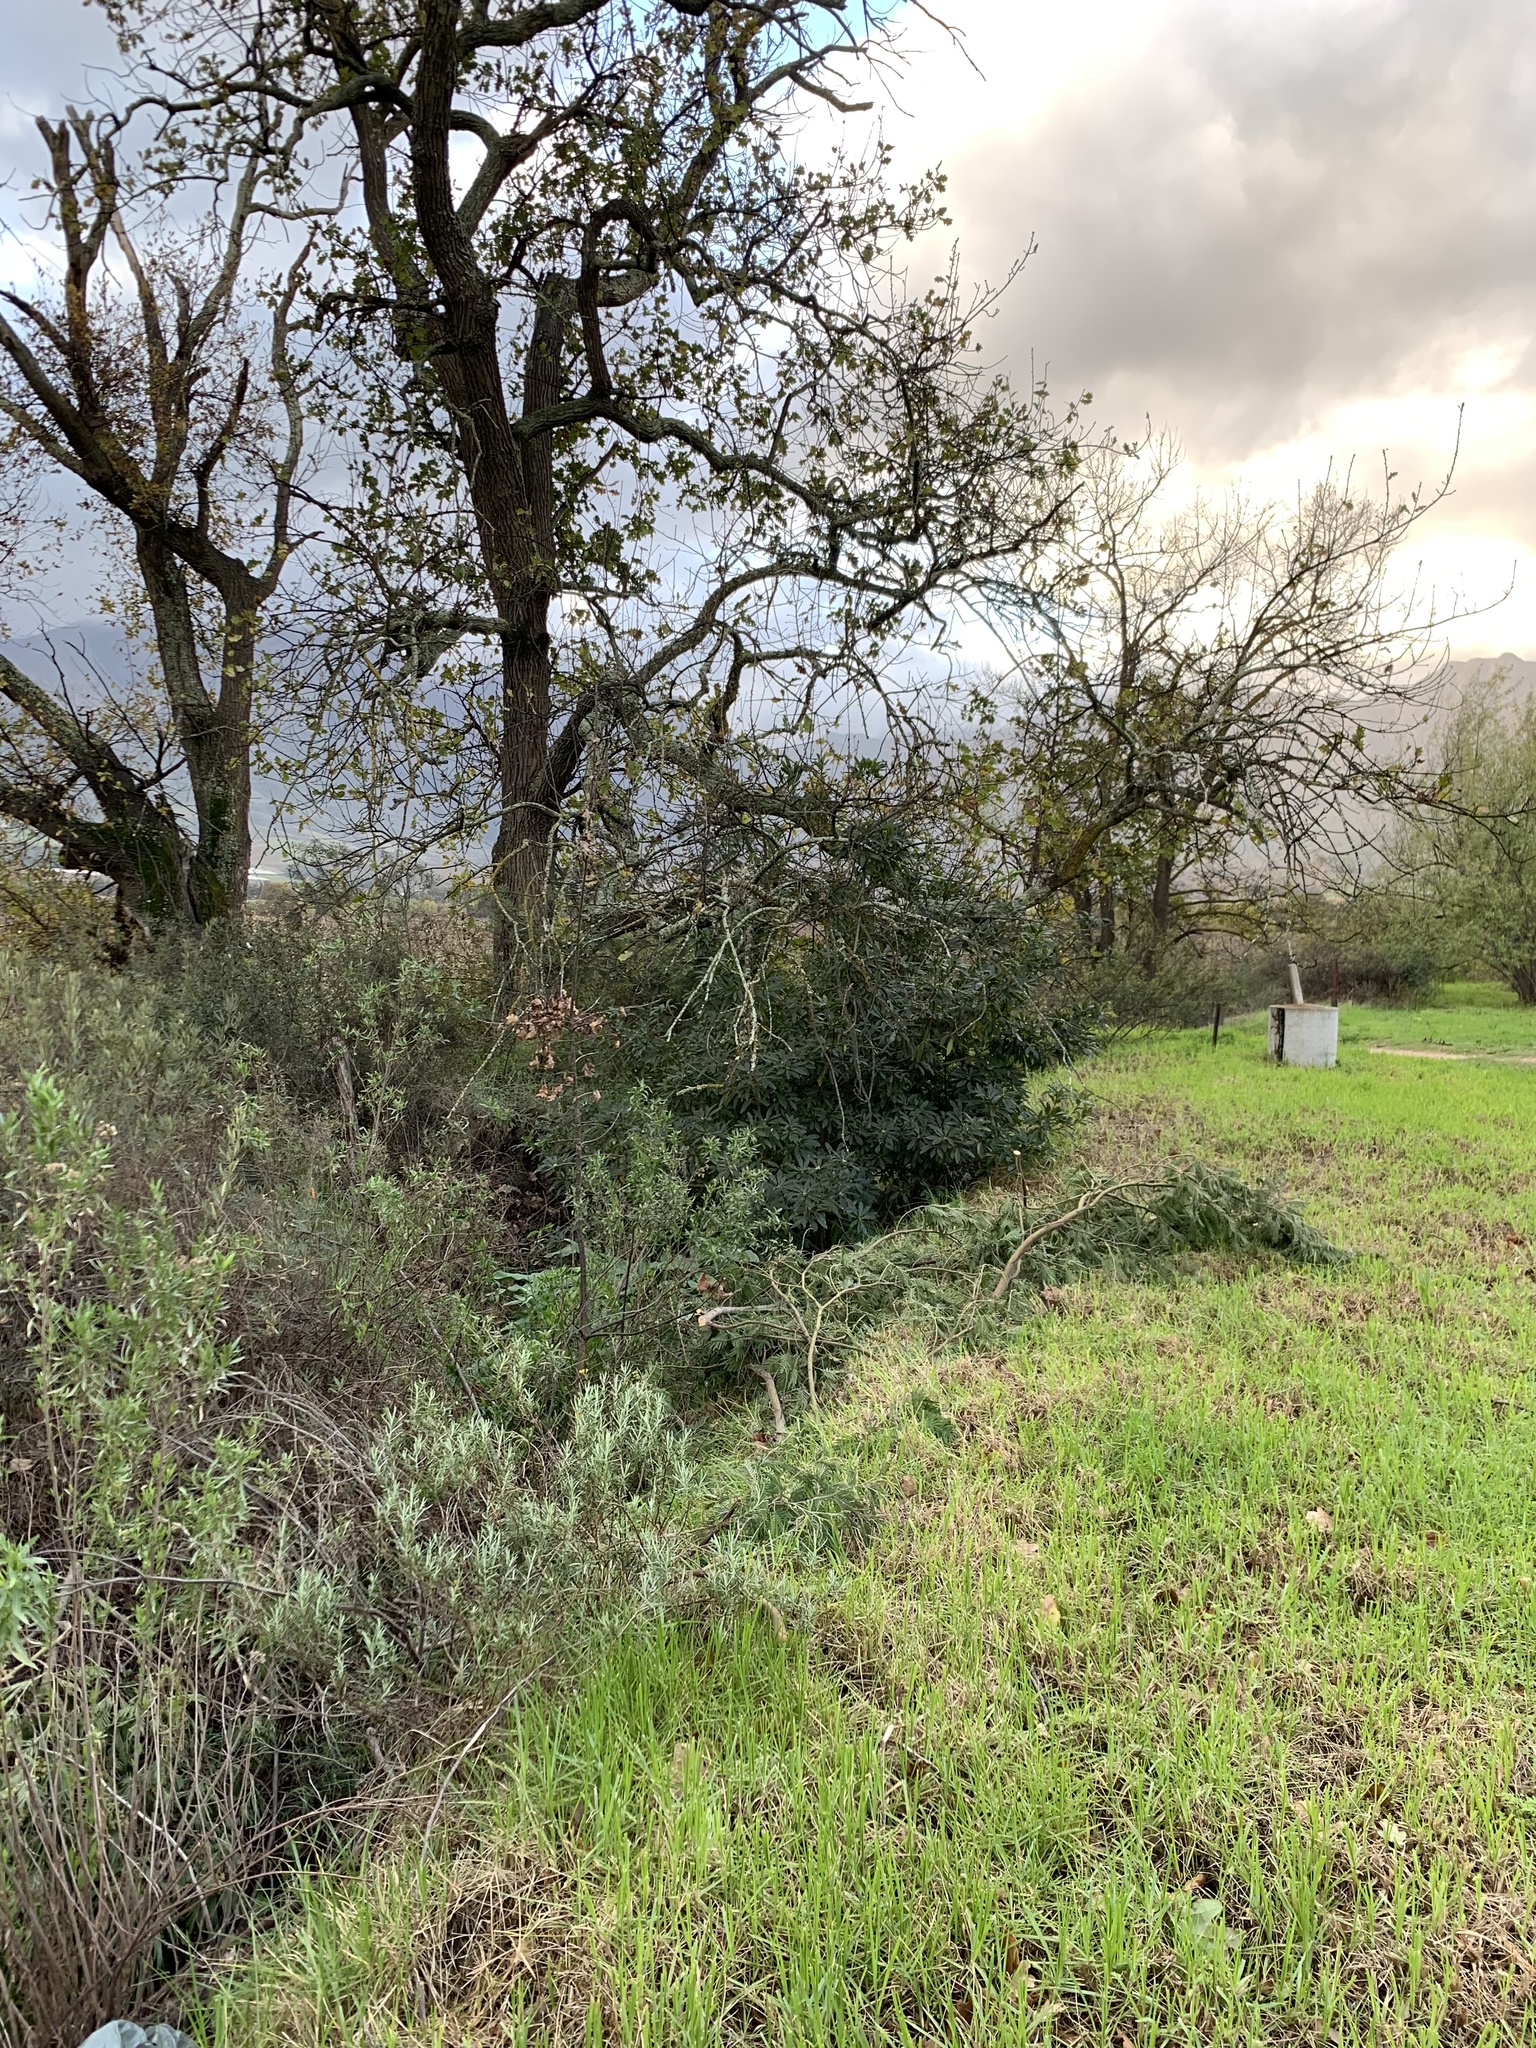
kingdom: Plantae
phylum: Tracheophyta
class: Magnoliopsida
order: Apiales
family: Pittosporaceae
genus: Pittosporum
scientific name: Pittosporum undulatum
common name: Australian cheesewood
